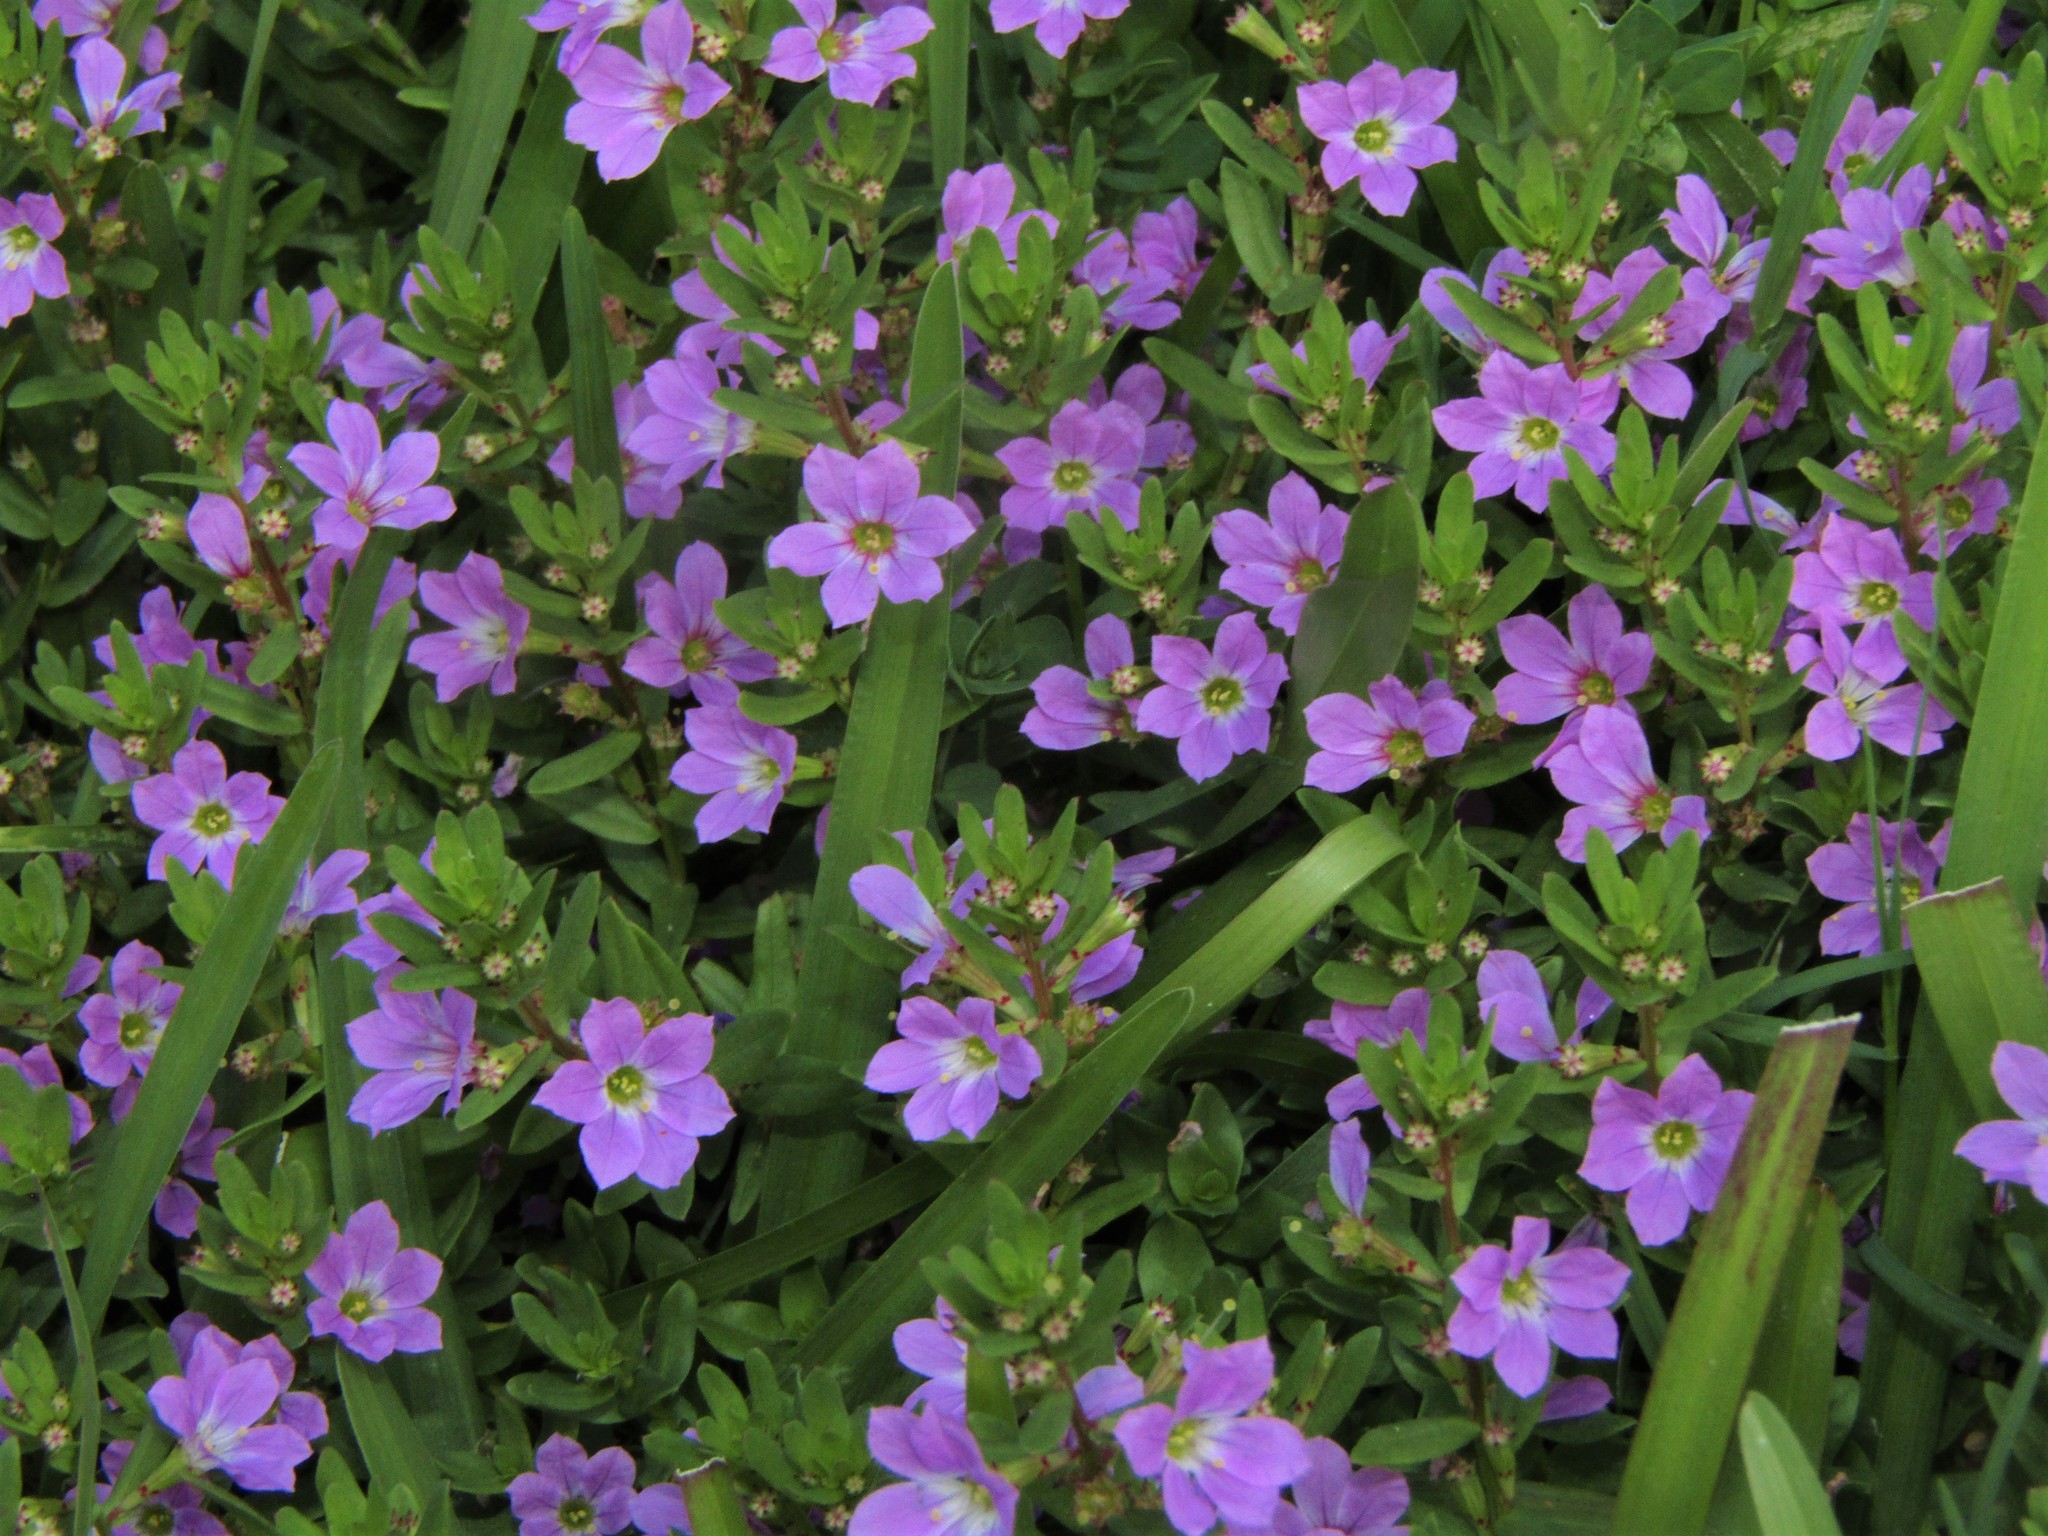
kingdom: Plantae
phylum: Tracheophyta
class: Magnoliopsida
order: Myrtales
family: Lythraceae
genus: Lythrum
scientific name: Lythrum hyssopifolia
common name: Grass-poly
